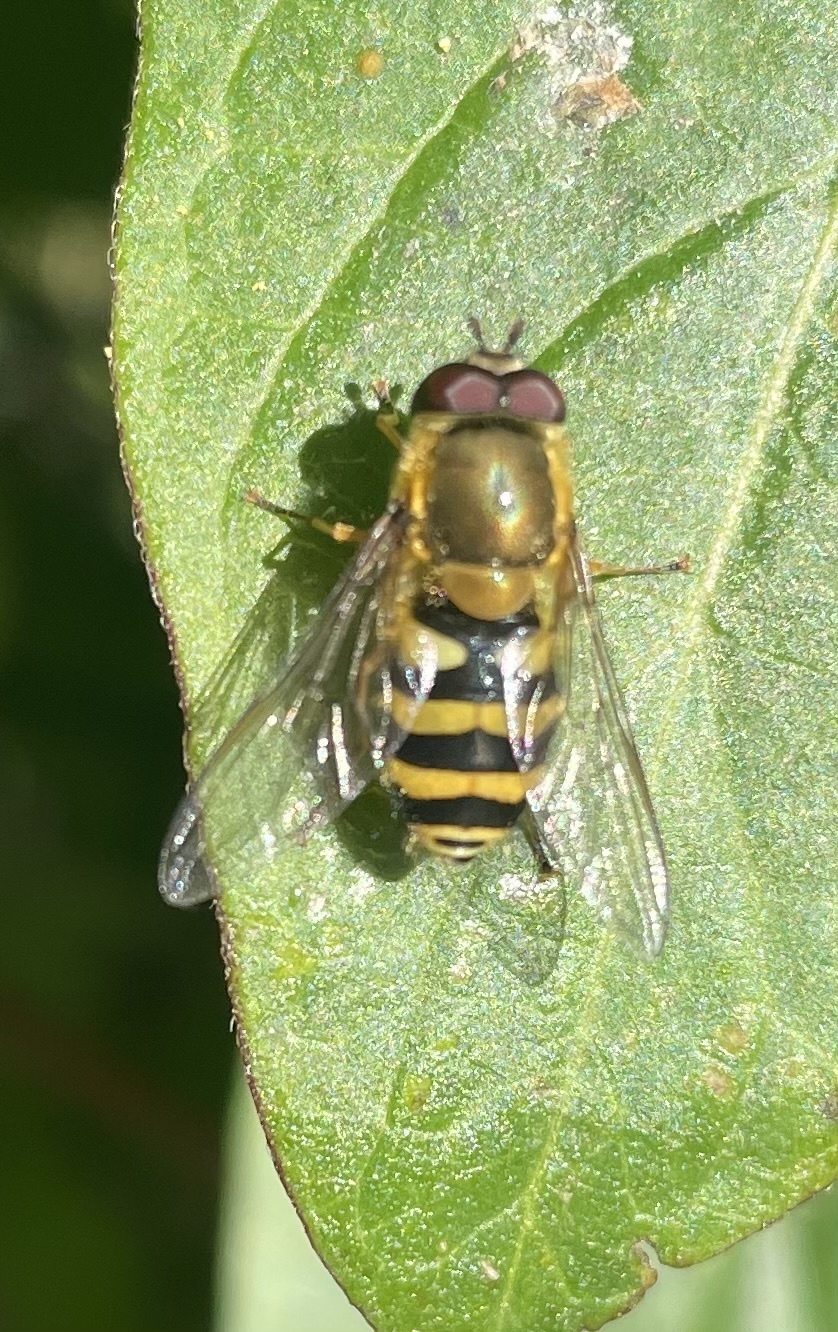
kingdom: Animalia
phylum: Arthropoda
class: Insecta
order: Diptera
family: Syrphidae
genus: Syrphus
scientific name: Syrphus
